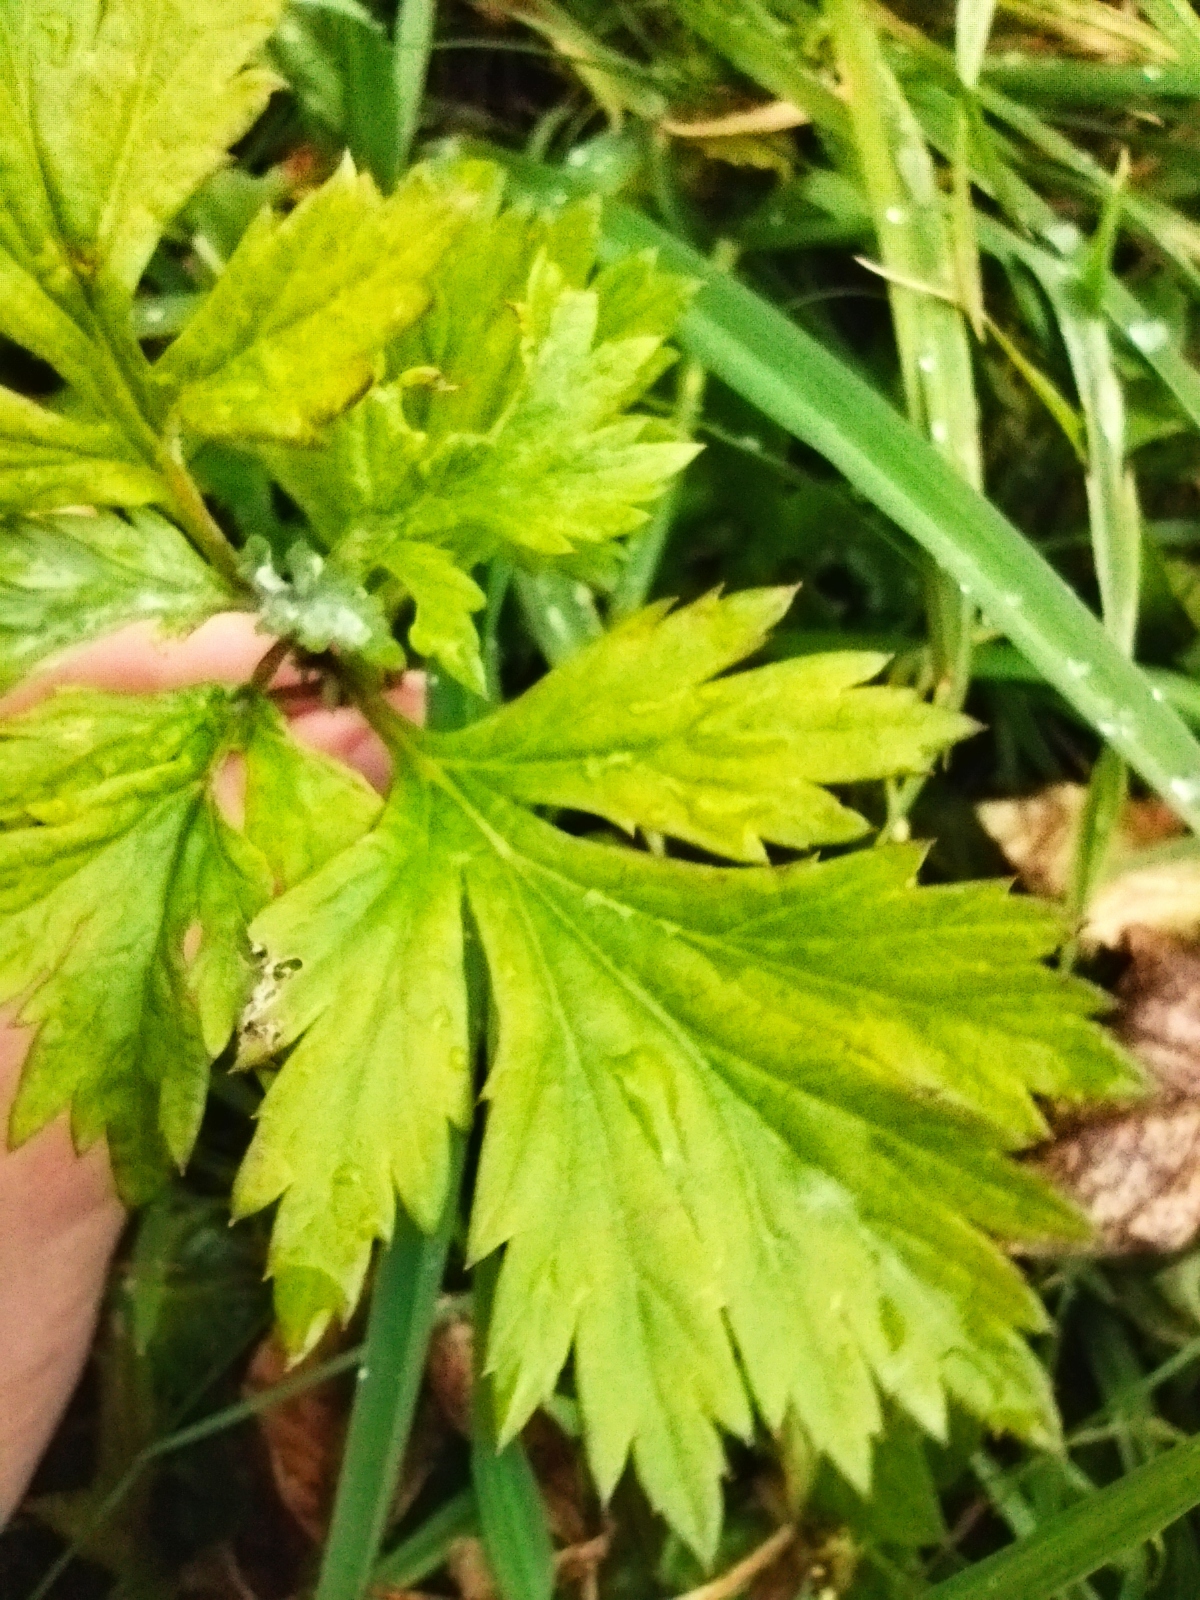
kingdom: Plantae
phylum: Tracheophyta
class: Magnoliopsida
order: Asterales
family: Asteraceae
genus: Artemisia
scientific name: Artemisia vulgaris
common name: Mugwort
